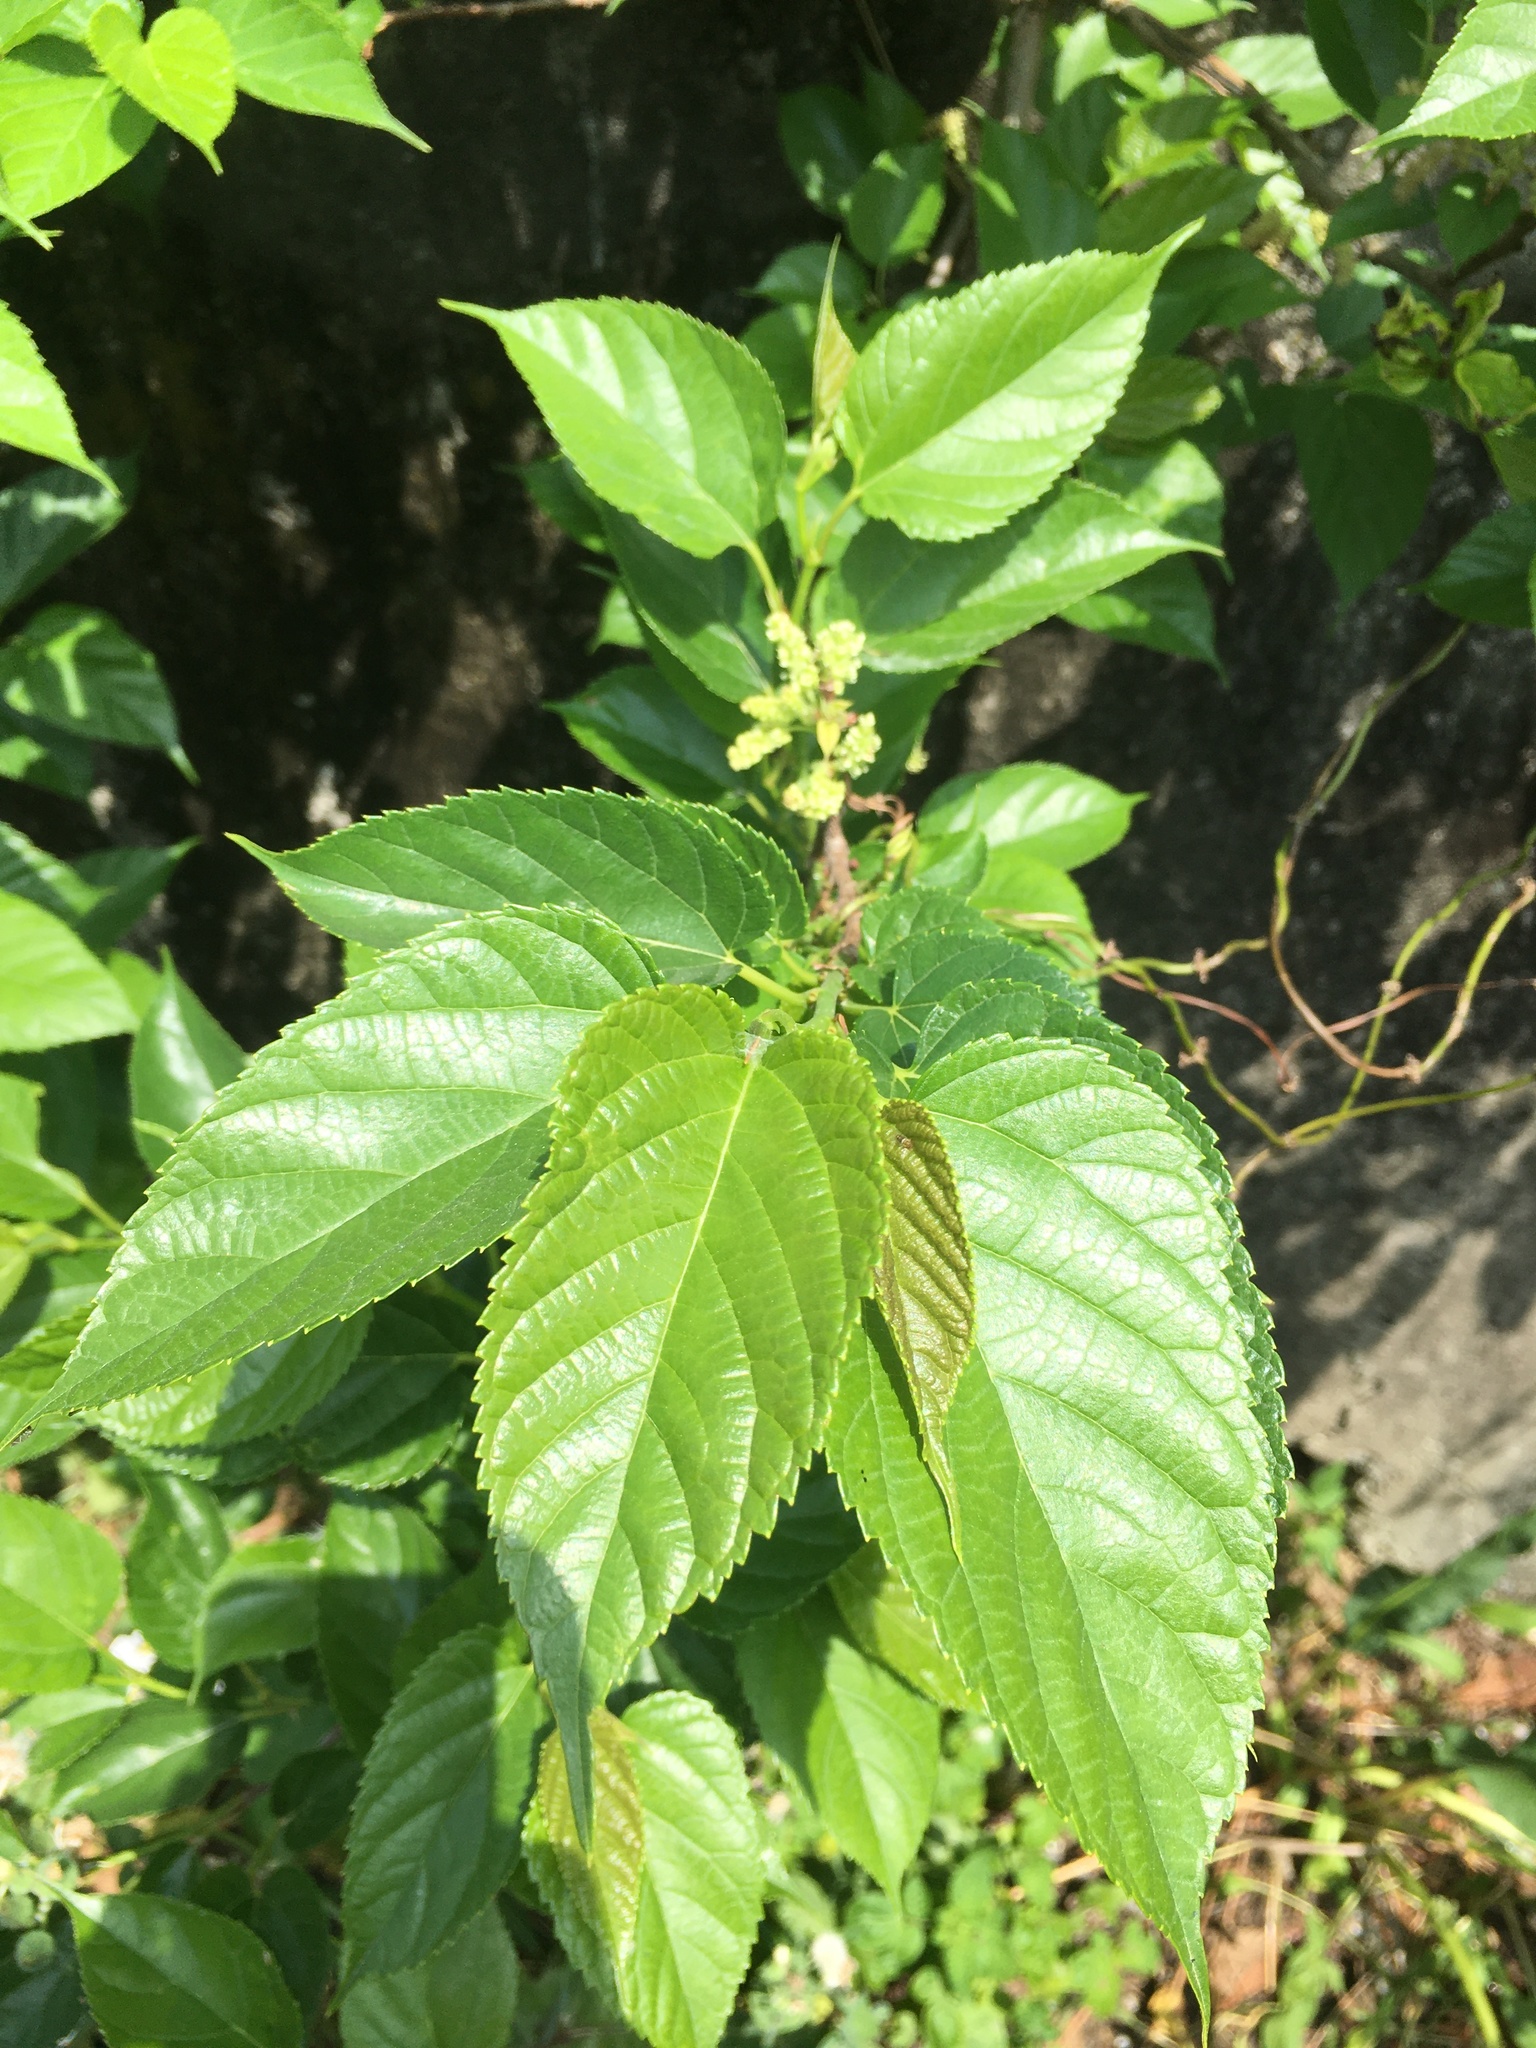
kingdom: Plantae
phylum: Tracheophyta
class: Magnoliopsida
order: Rosales
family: Moraceae
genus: Morus
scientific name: Morus indica
